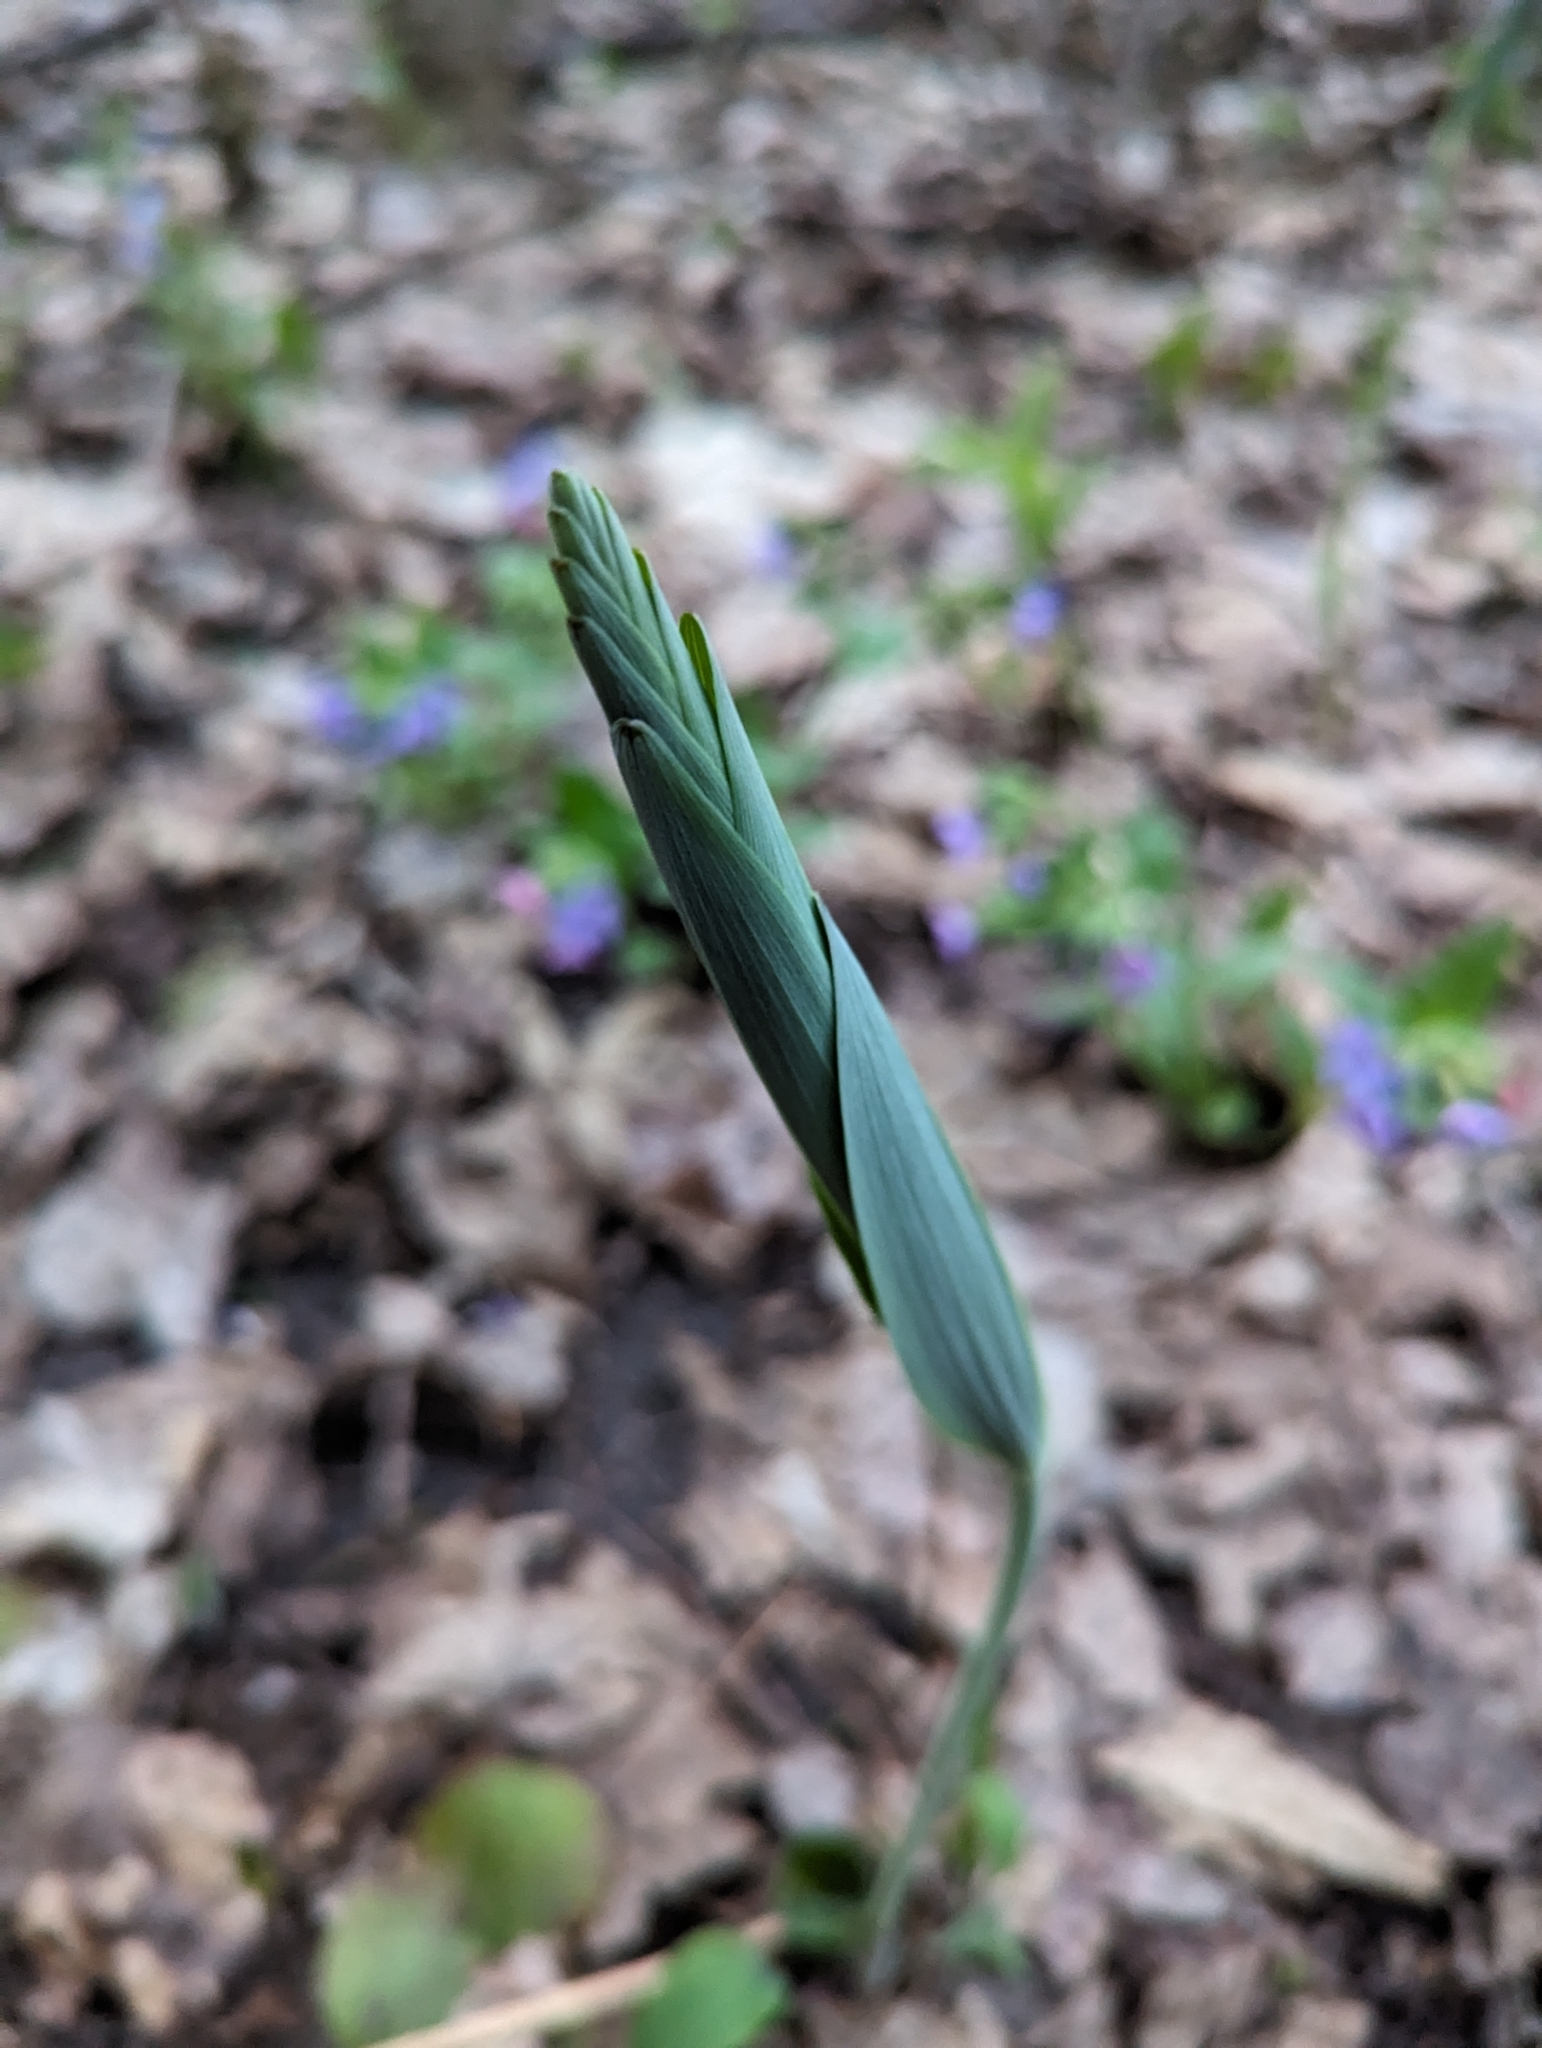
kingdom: Plantae
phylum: Tracheophyta
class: Liliopsida
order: Asparagales
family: Asparagaceae
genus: Polygonatum
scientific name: Polygonatum multiflorum
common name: Solomon's-seal
